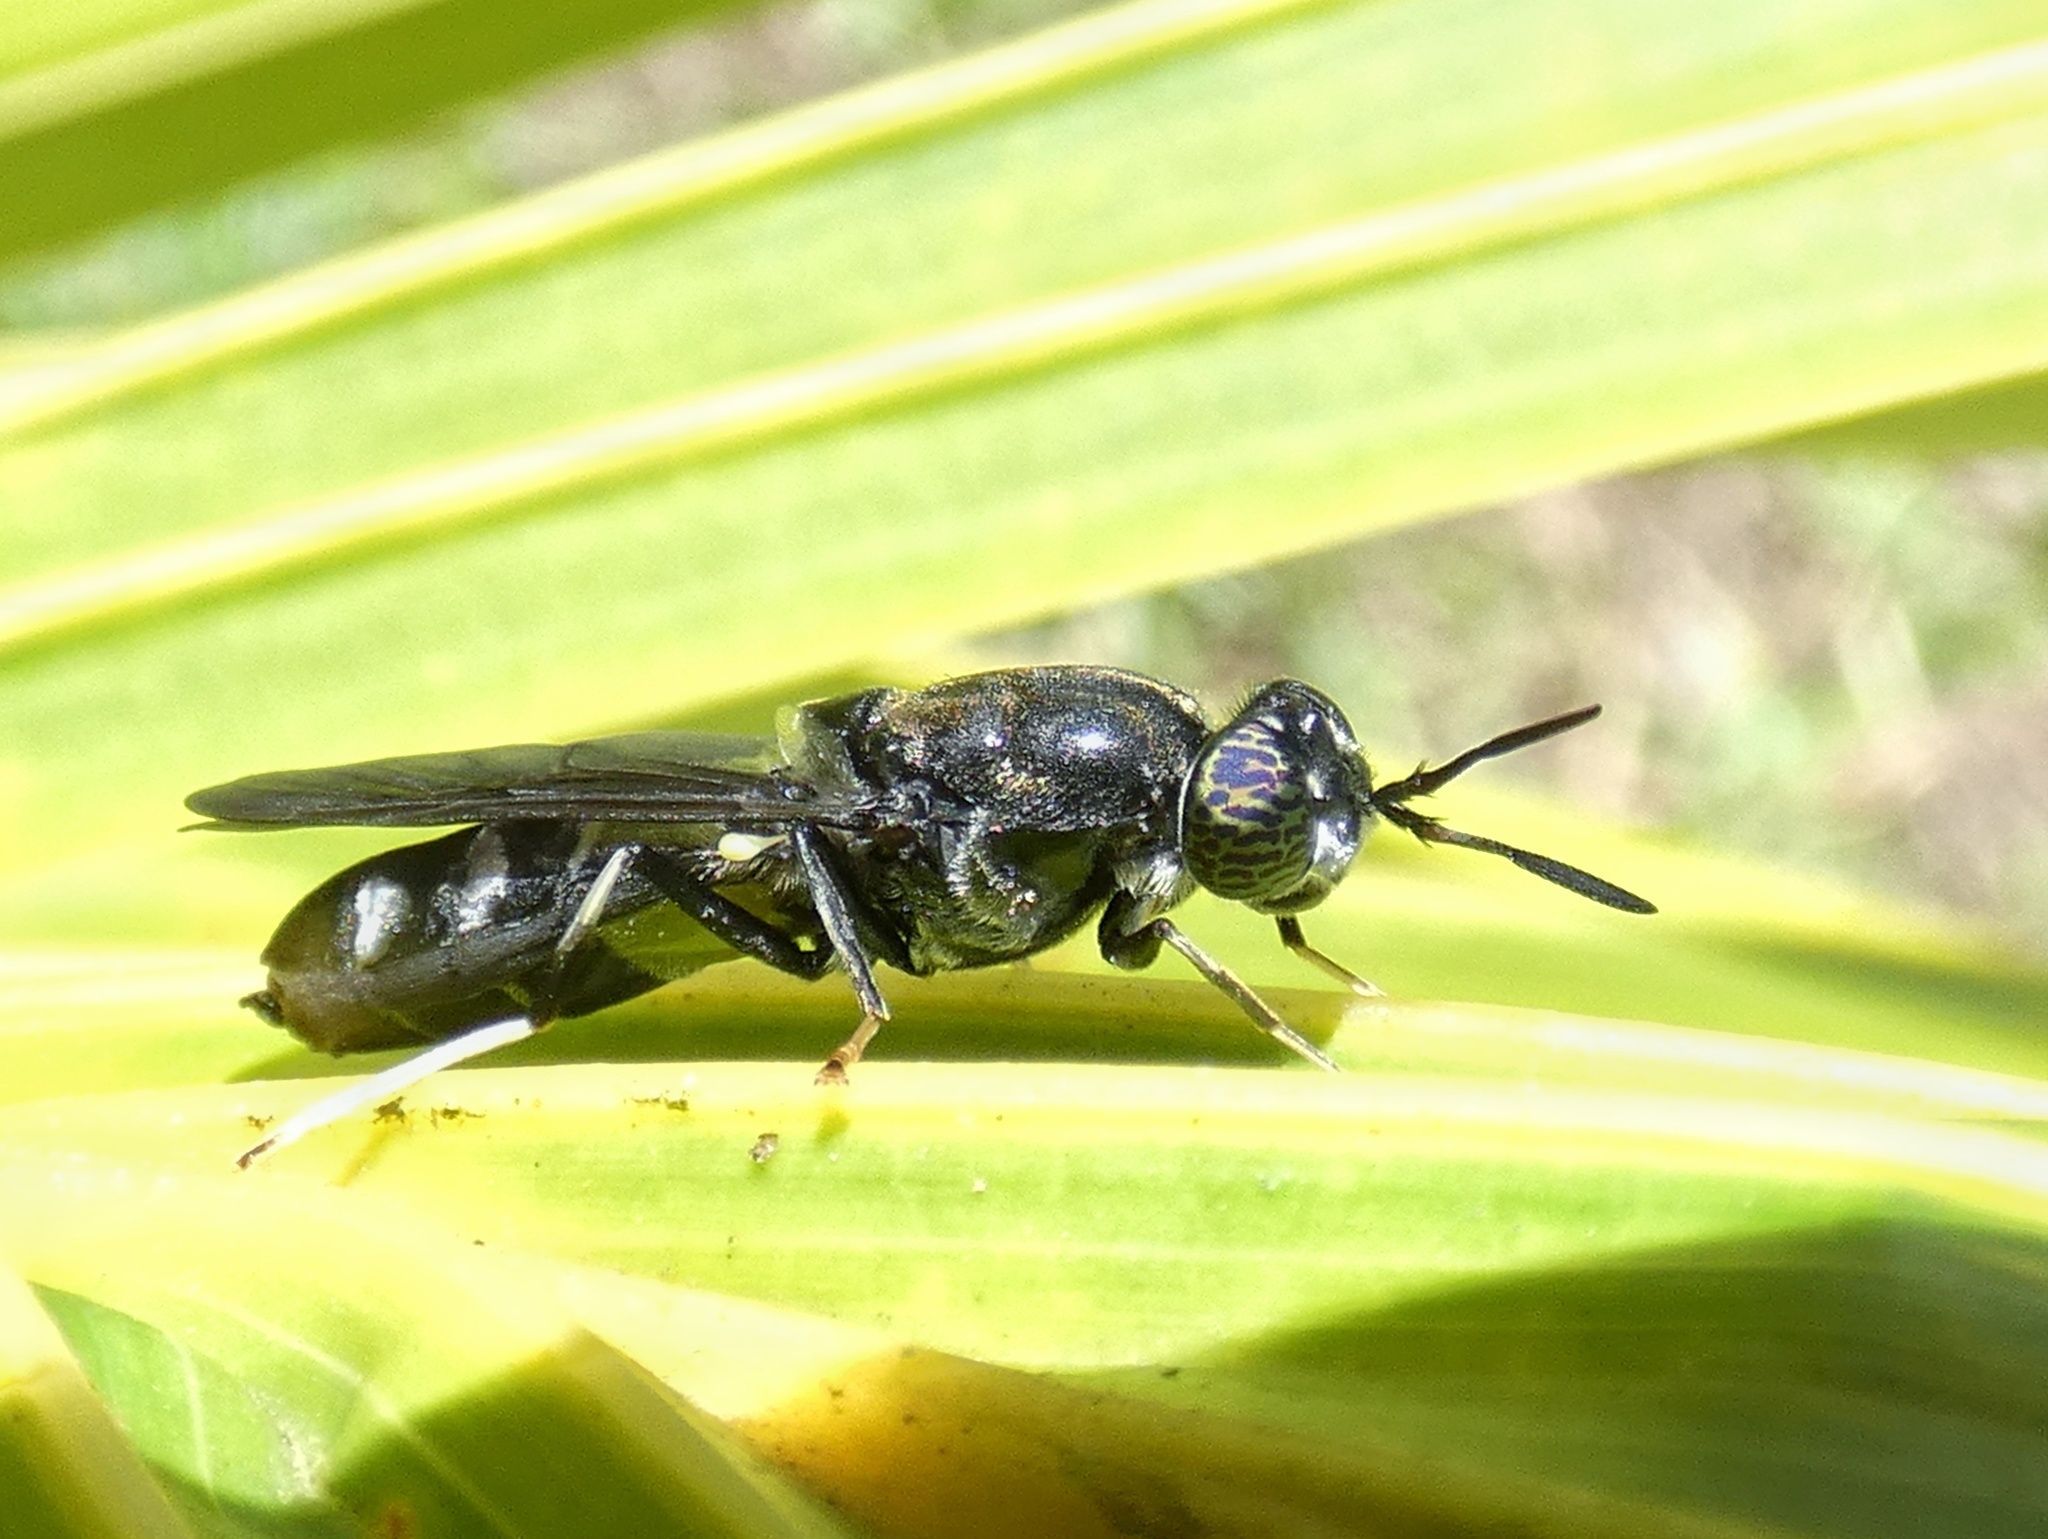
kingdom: Animalia
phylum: Arthropoda
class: Insecta
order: Diptera
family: Stratiomyidae
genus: Hermetia
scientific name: Hermetia illucens
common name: Black soldier fly
